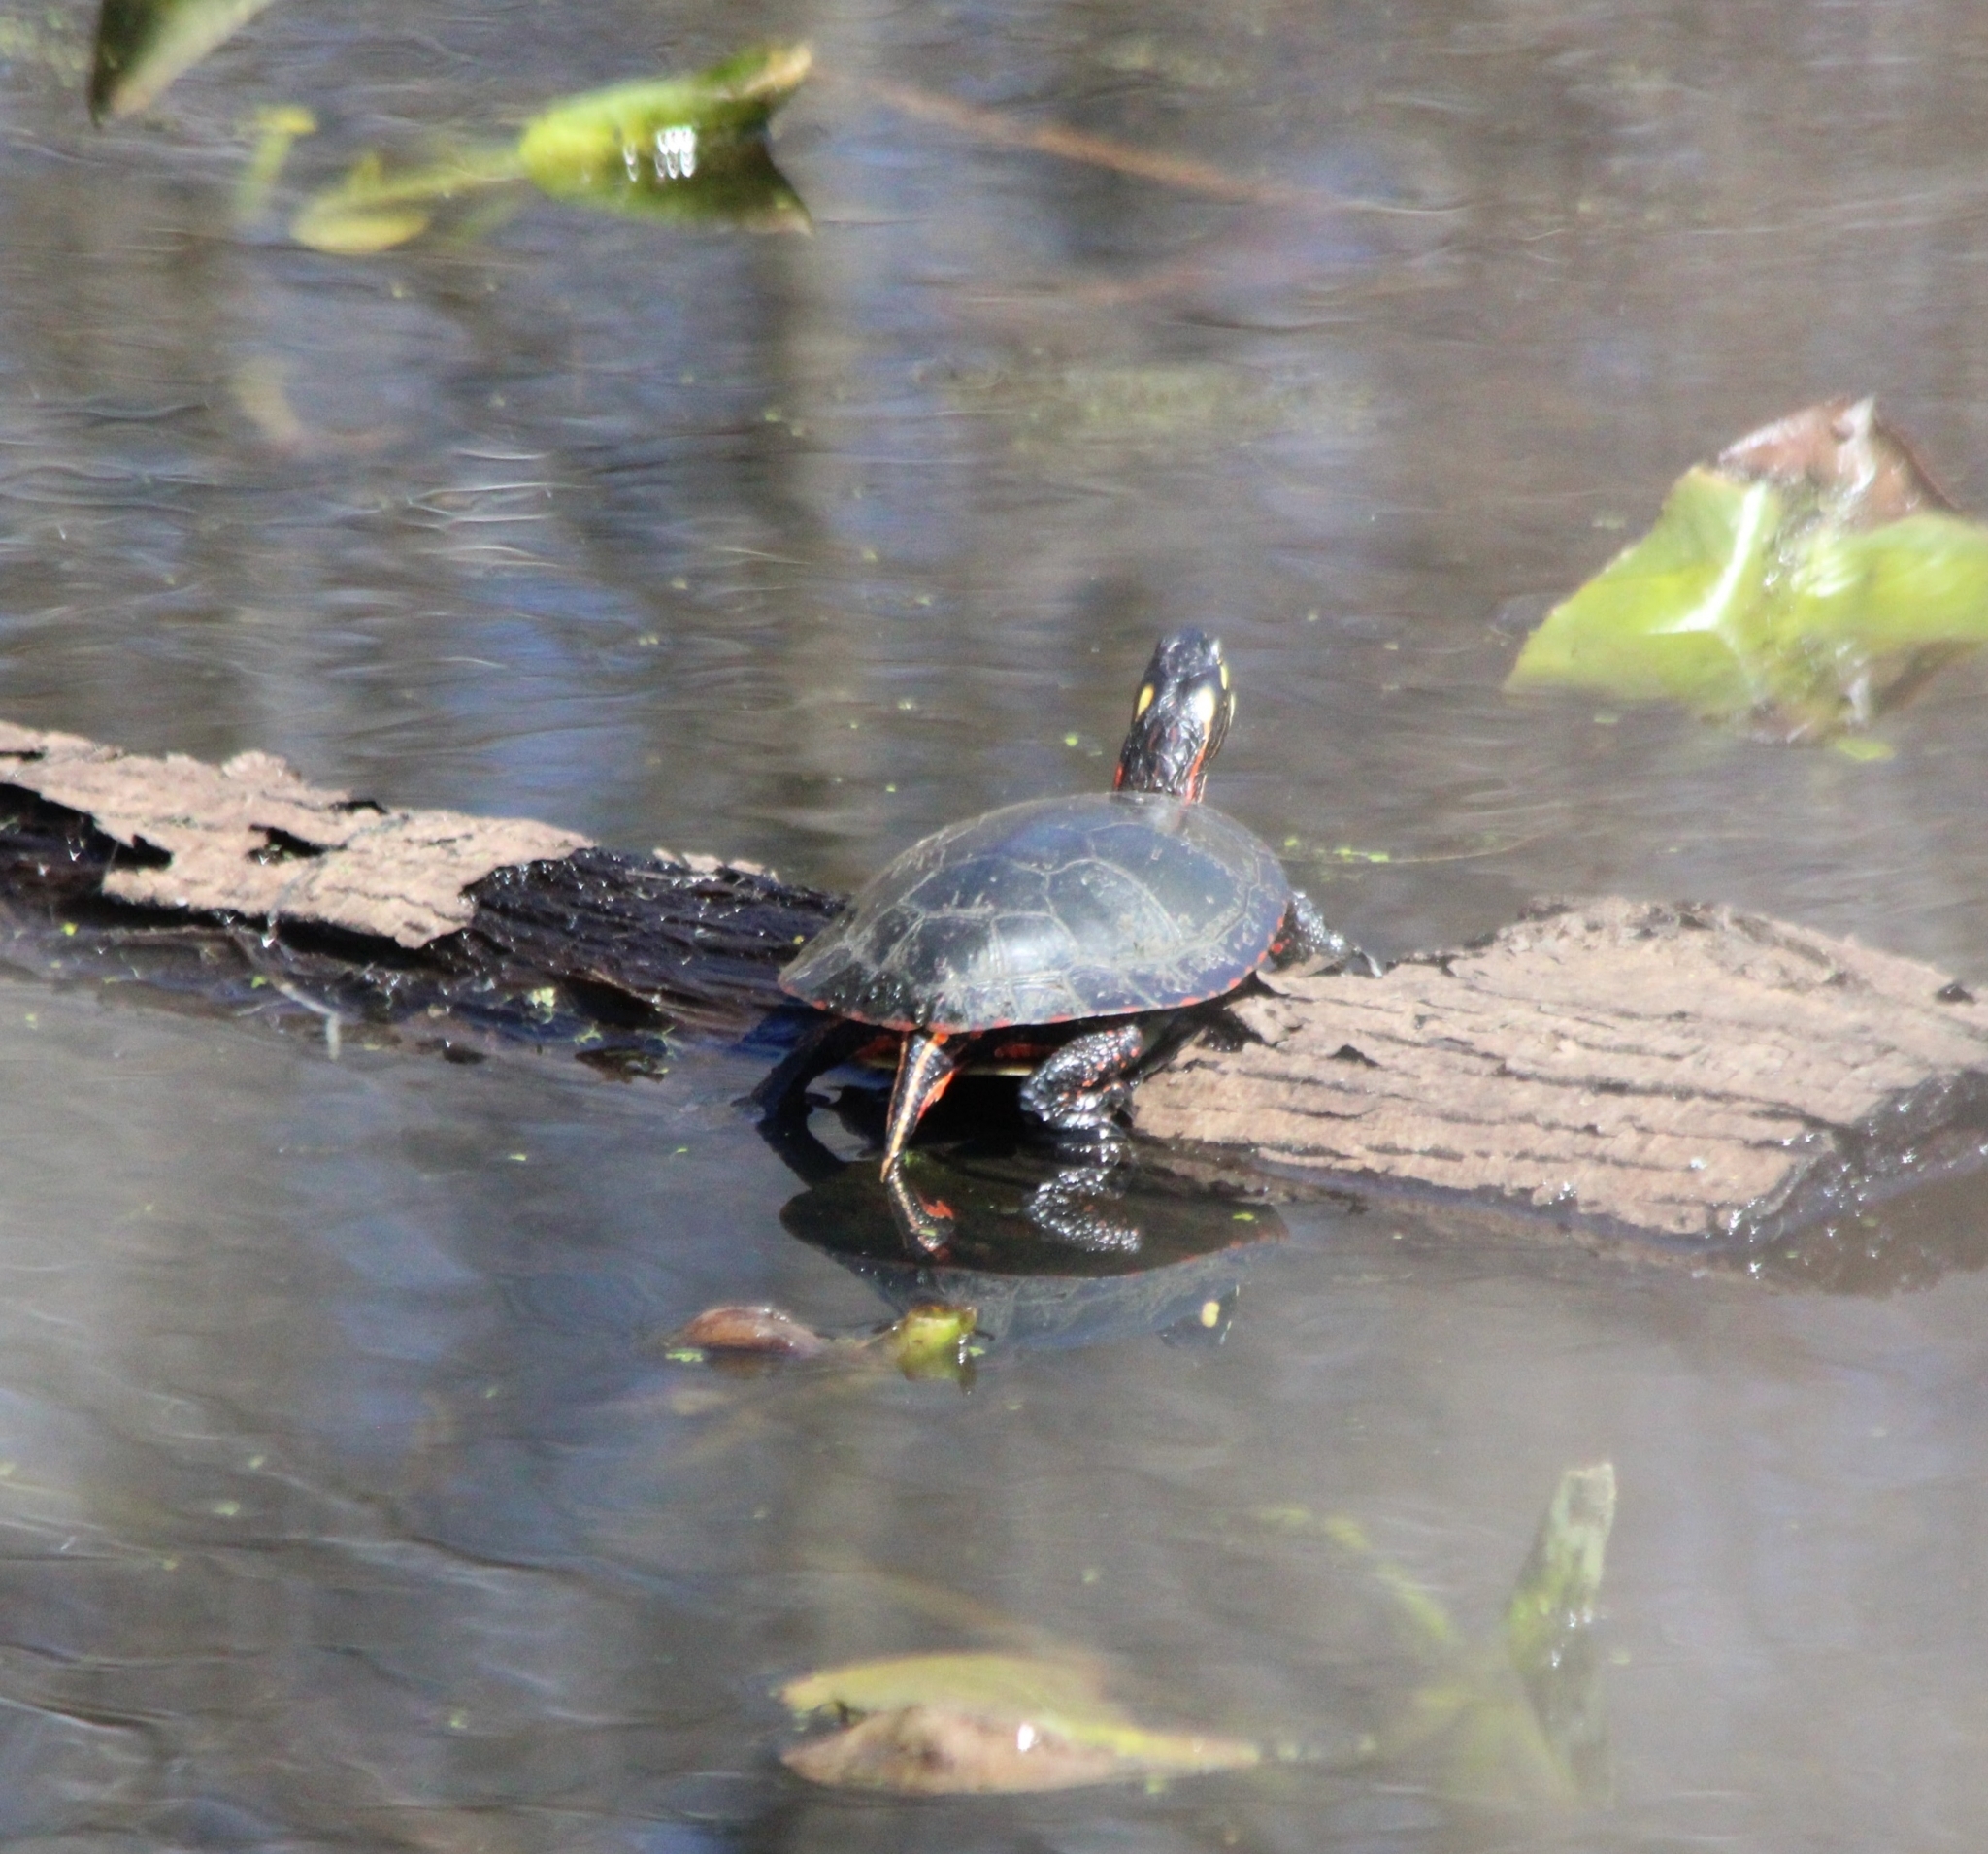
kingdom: Animalia
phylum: Chordata
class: Testudines
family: Emydidae
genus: Chrysemys
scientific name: Chrysemys picta
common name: Painted turtle
